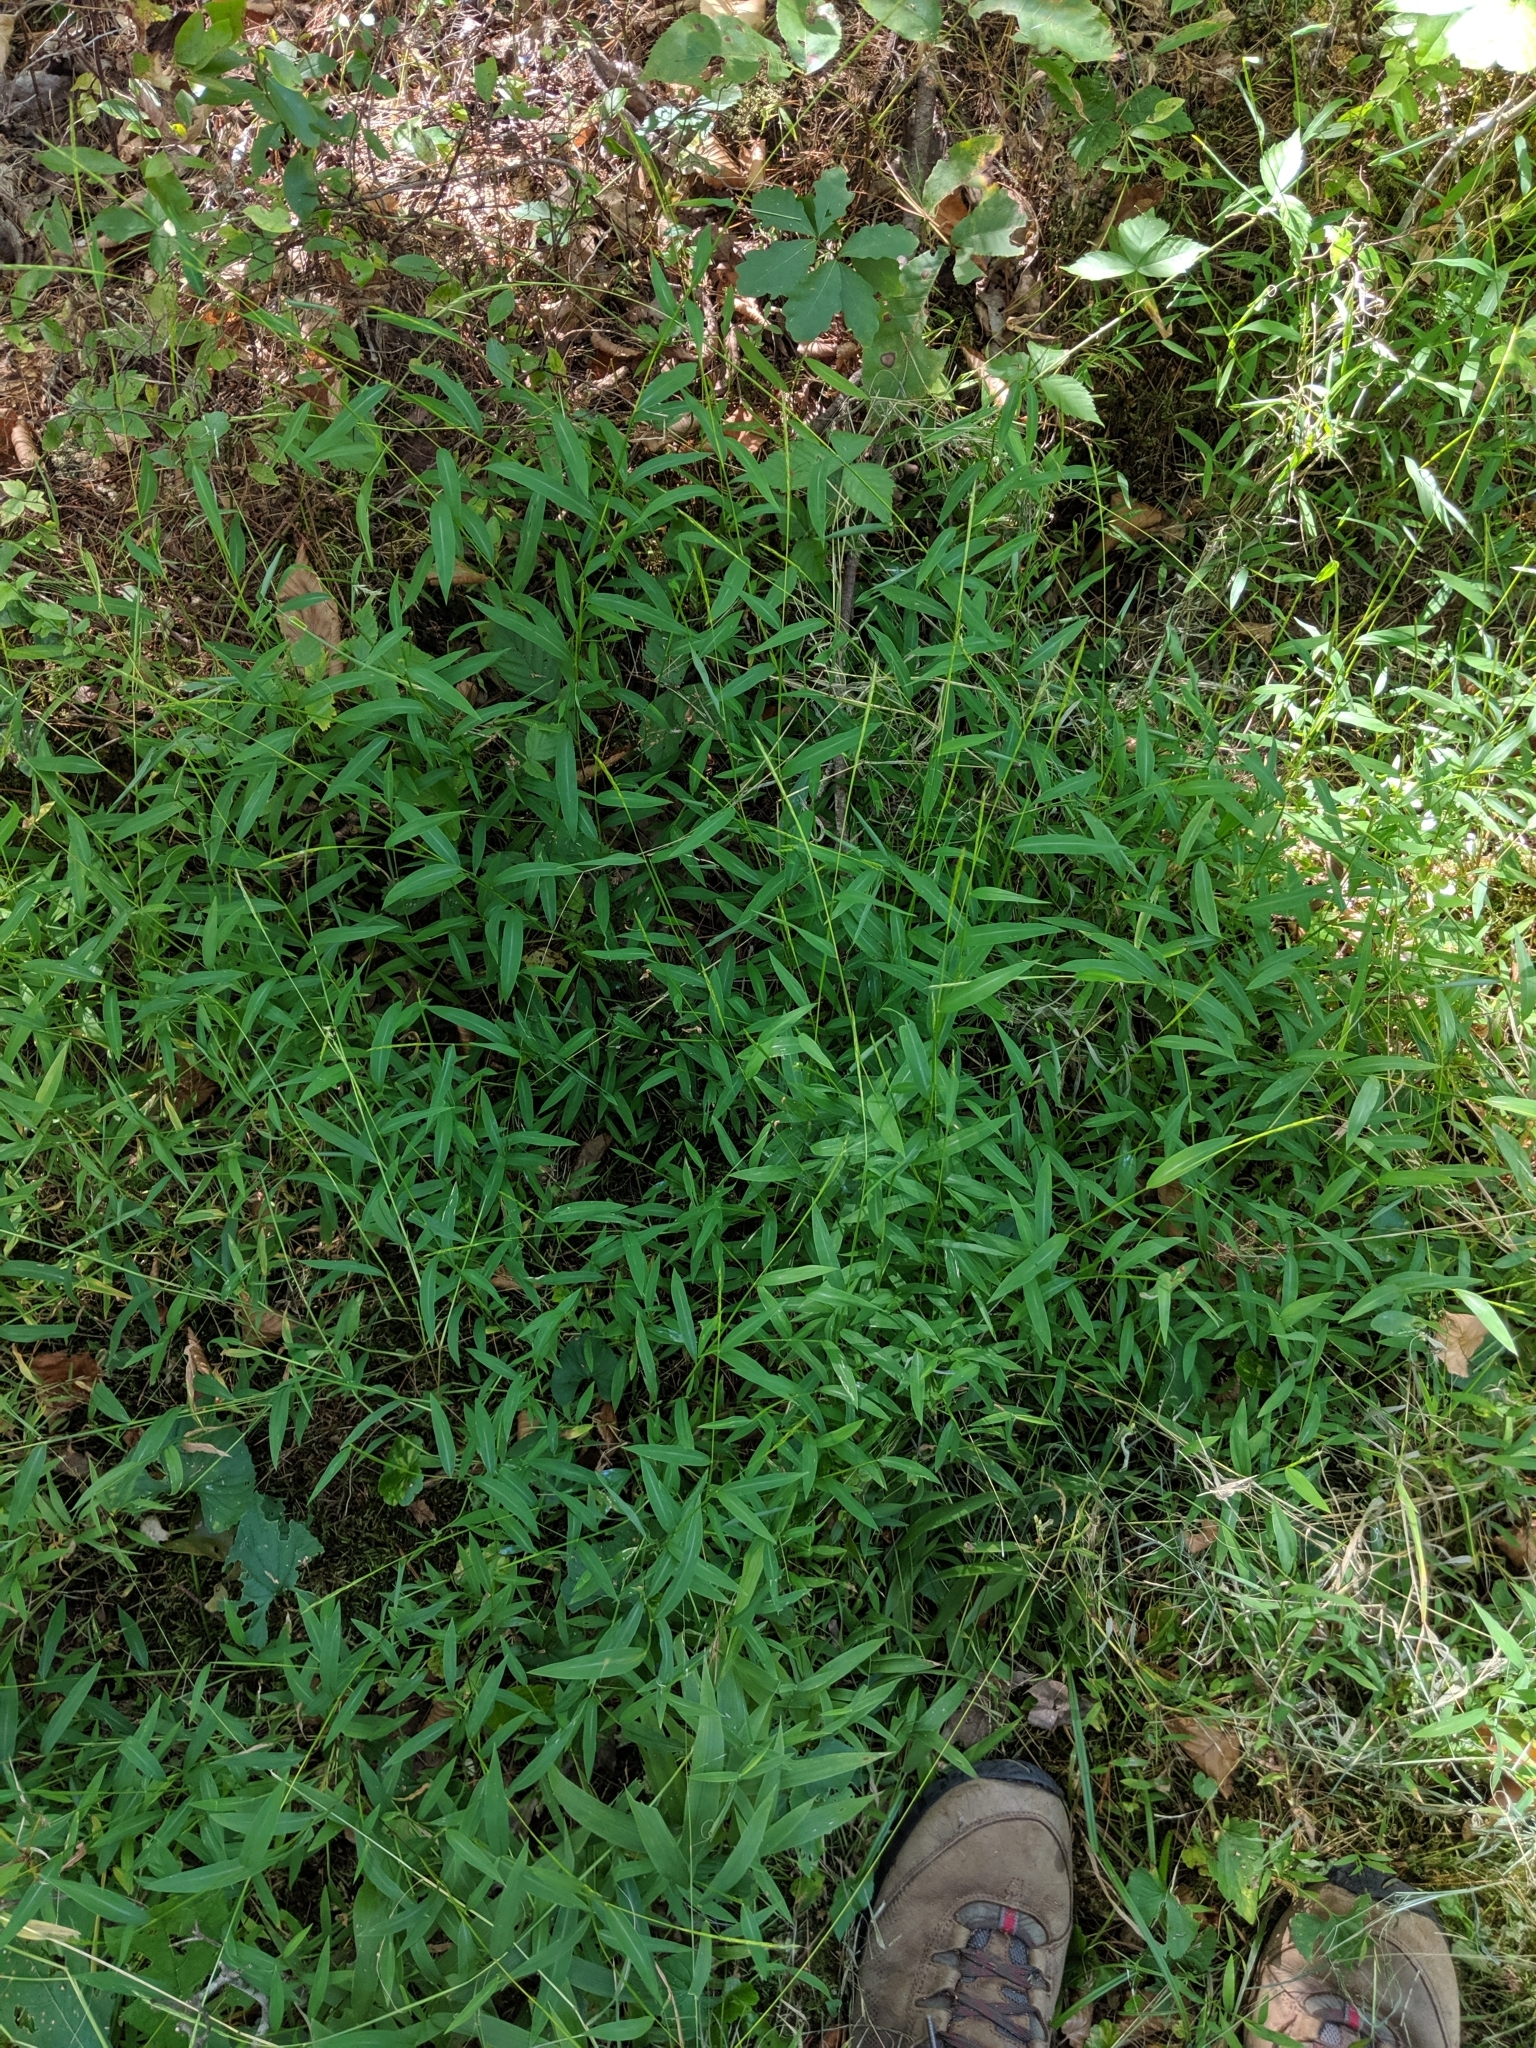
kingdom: Plantae
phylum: Tracheophyta
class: Liliopsida
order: Poales
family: Poaceae
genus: Microstegium
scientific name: Microstegium vimineum
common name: Japanese stiltgrass
